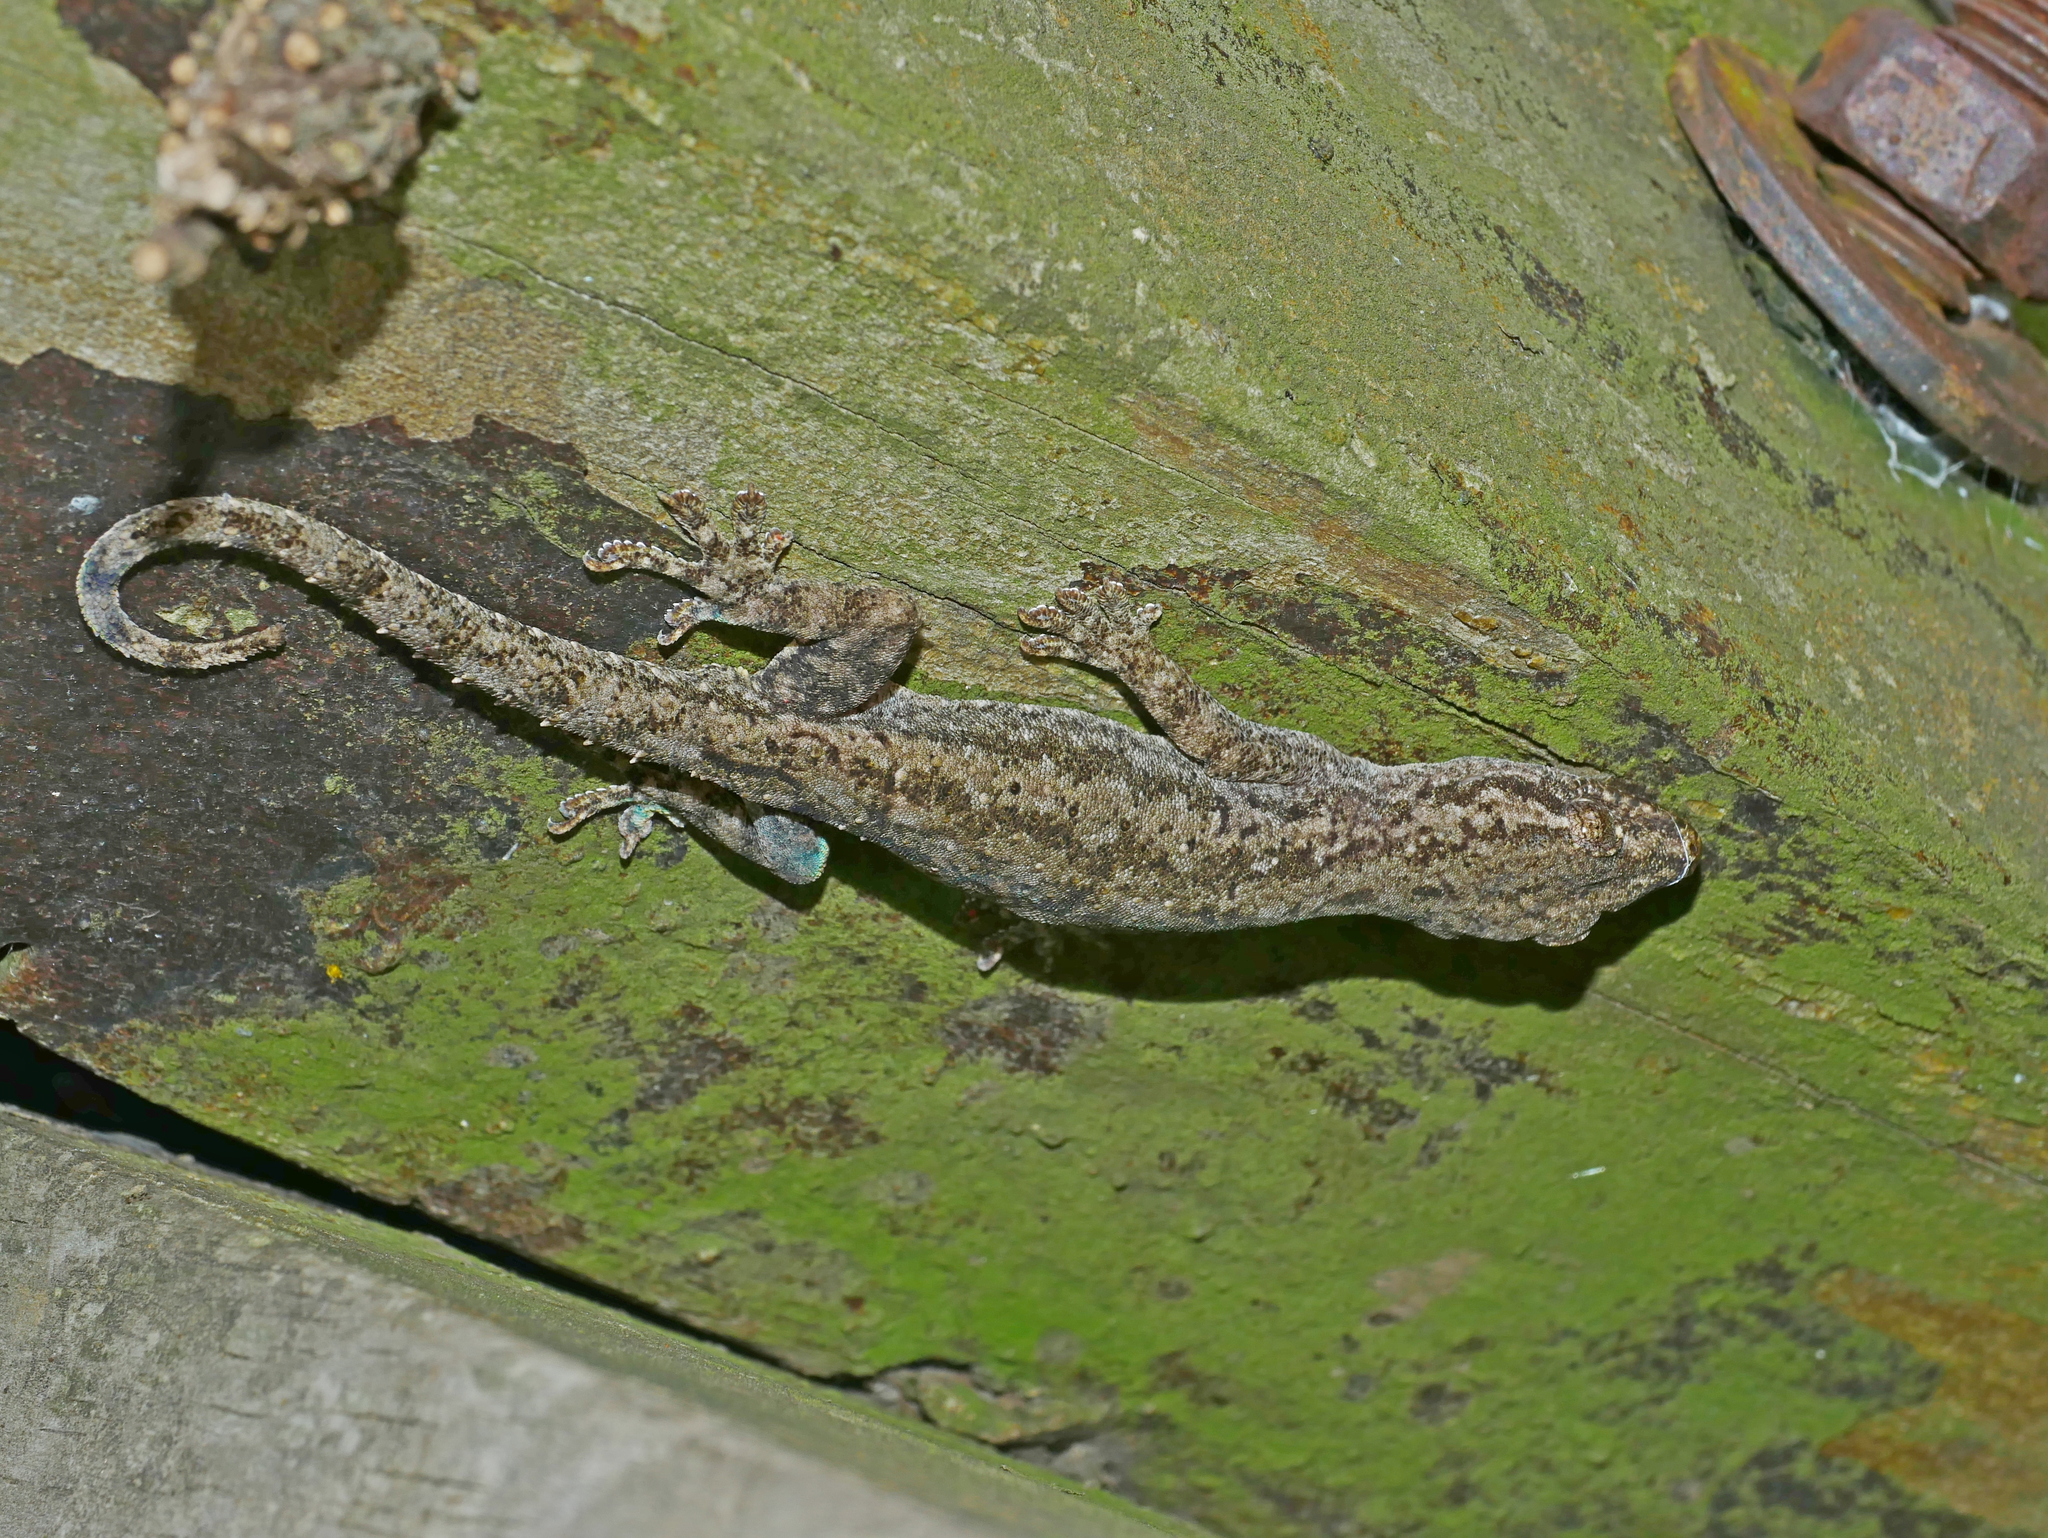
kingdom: Animalia
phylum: Chordata
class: Squamata
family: Gekkonidae
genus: Hemidactylus
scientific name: Hemidactylus frenatus
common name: Common house gecko
